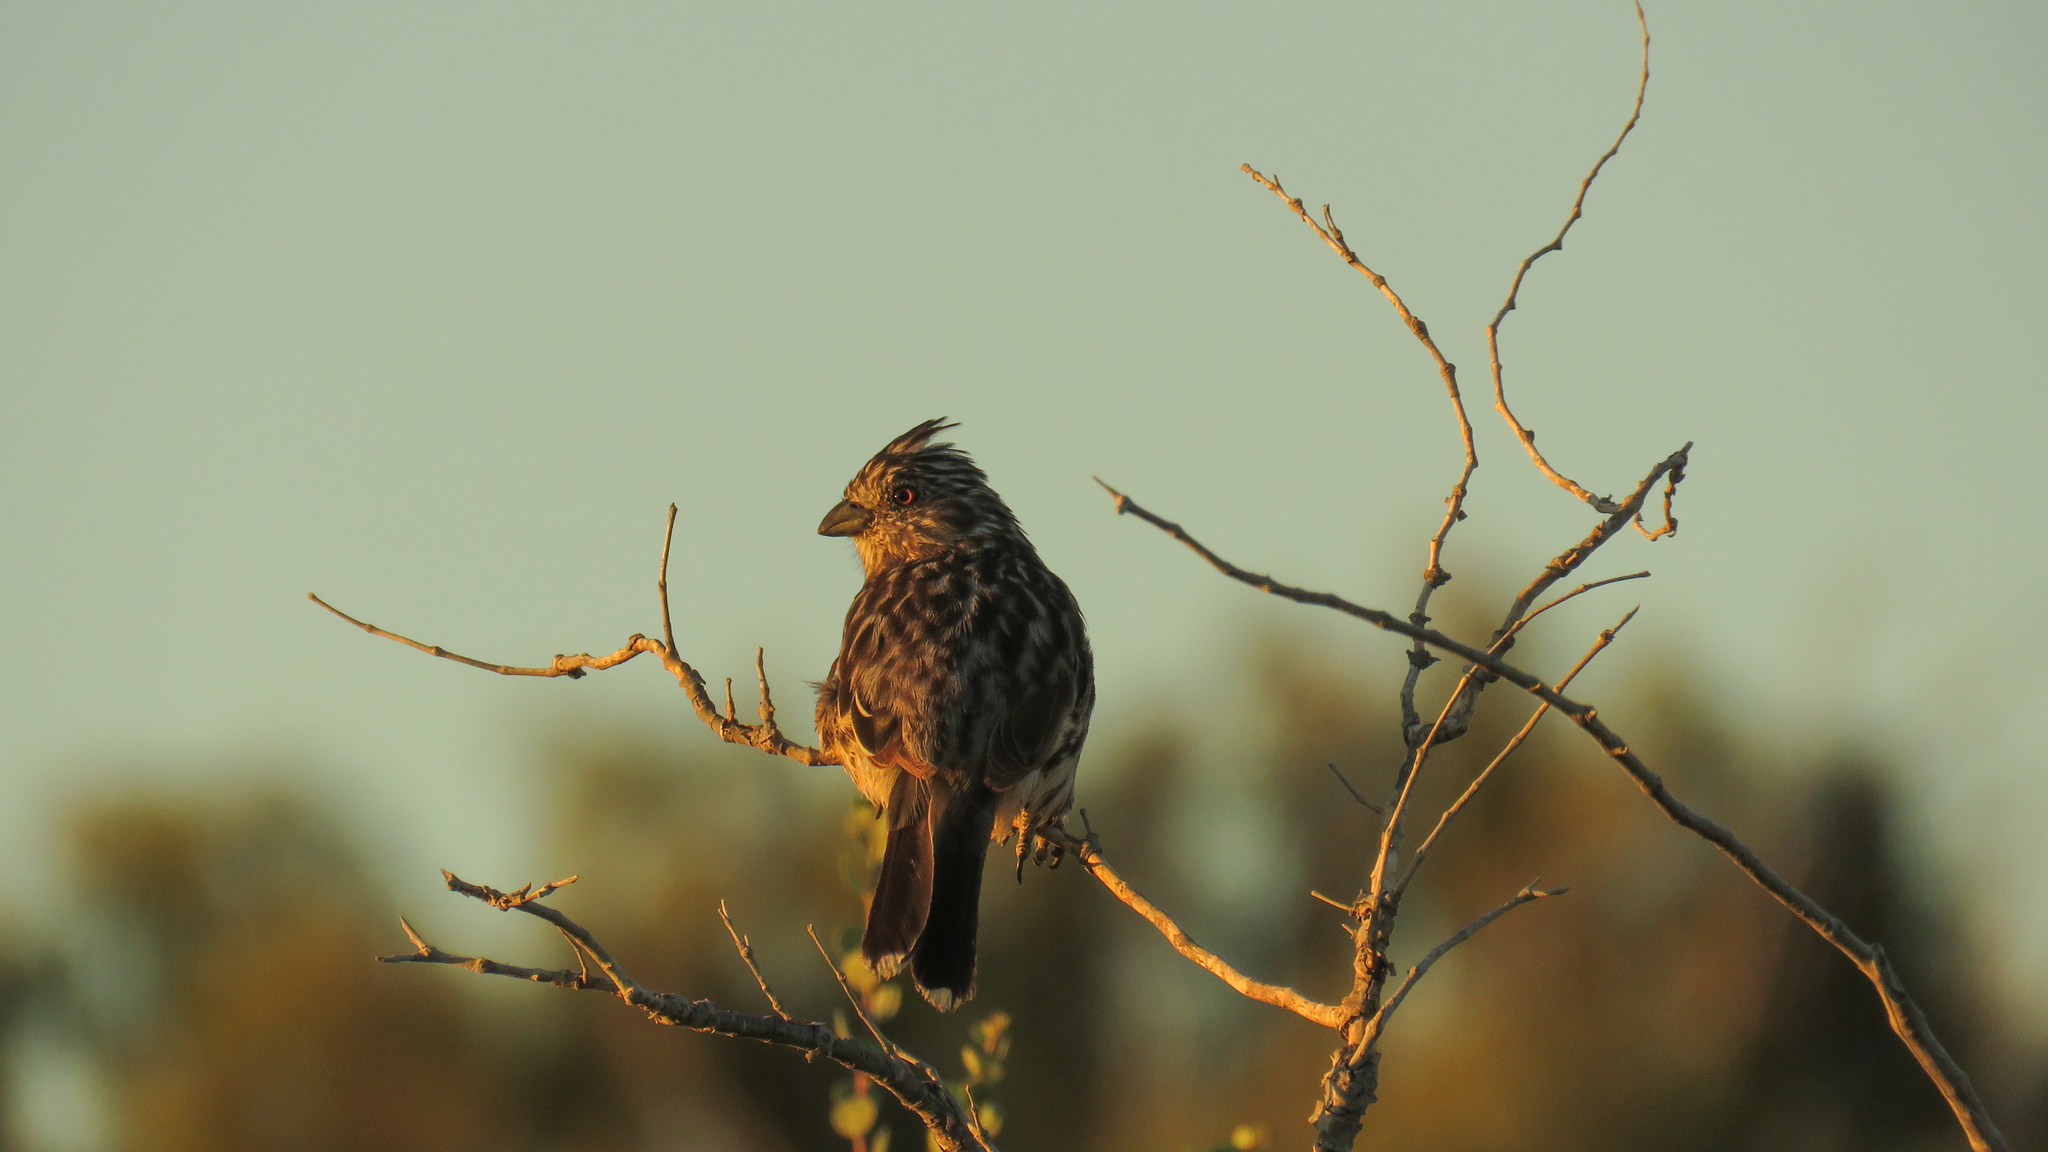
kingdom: Animalia
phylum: Chordata
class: Aves
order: Passeriformes
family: Cotingidae
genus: Phytotoma
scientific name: Phytotoma rutila
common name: White-tipped plantcutter
